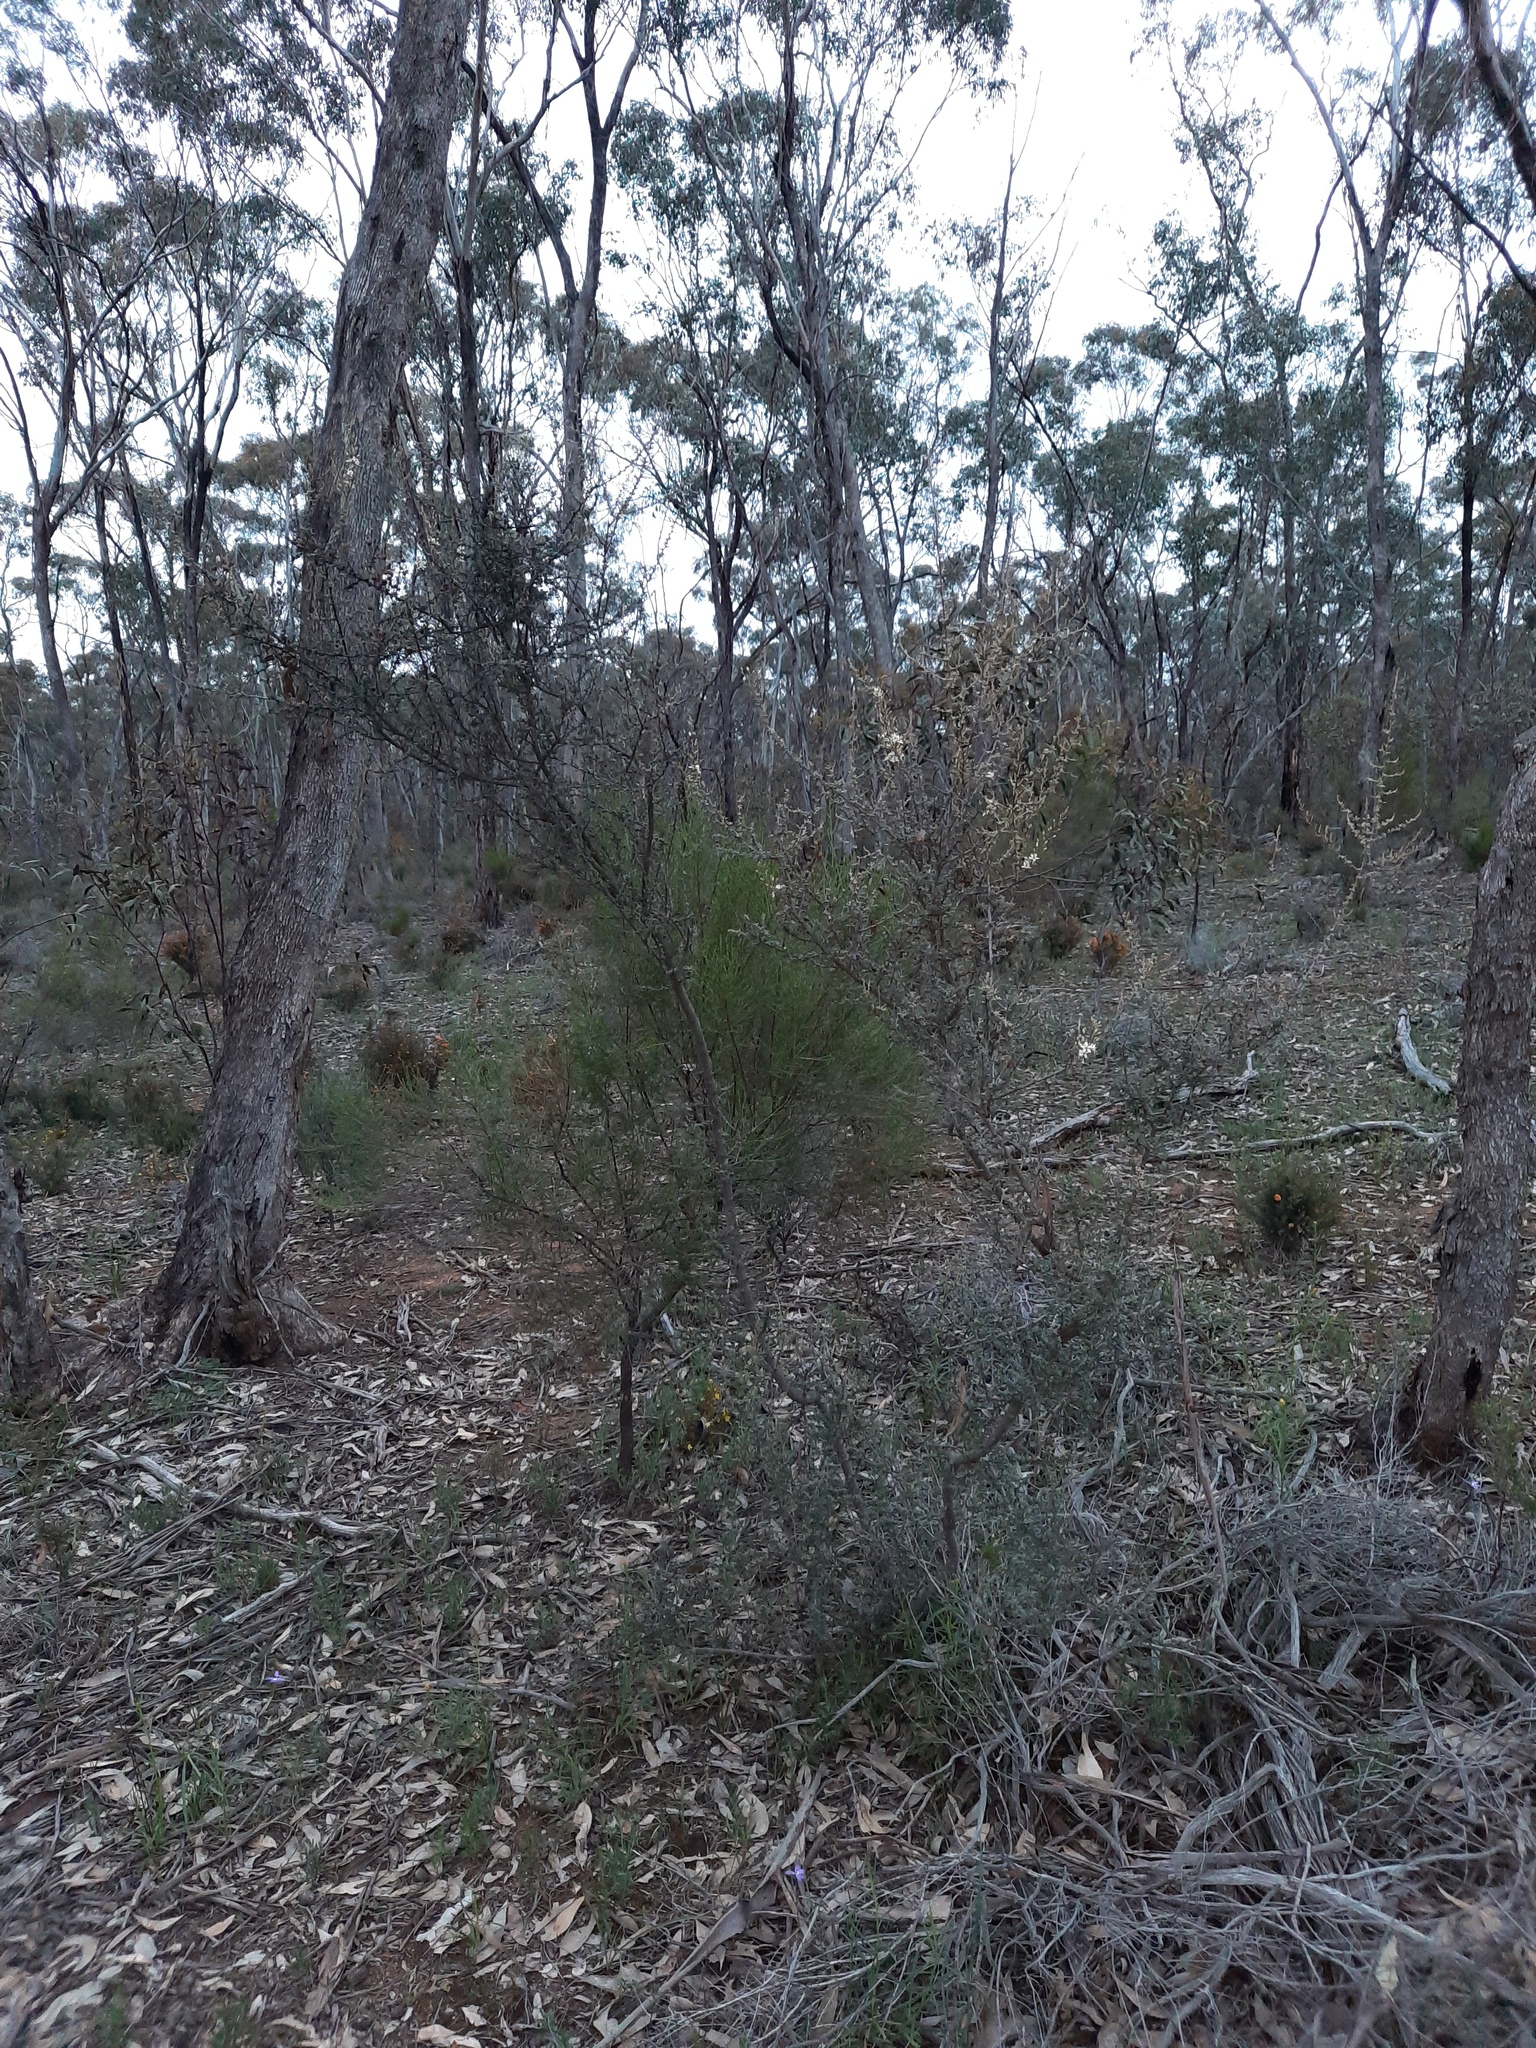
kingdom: Plantae
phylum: Tracheophyta
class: Magnoliopsida
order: Apiales
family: Pittosporaceae
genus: Bursaria
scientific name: Bursaria spinosa
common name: Australian blackthorn
